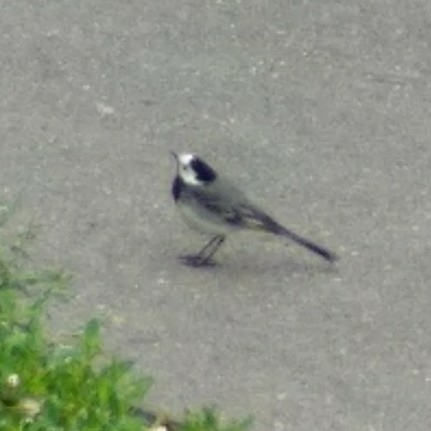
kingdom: Animalia
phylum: Chordata
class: Aves
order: Passeriformes
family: Motacillidae
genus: Motacilla
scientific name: Motacilla alba
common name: White wagtail
